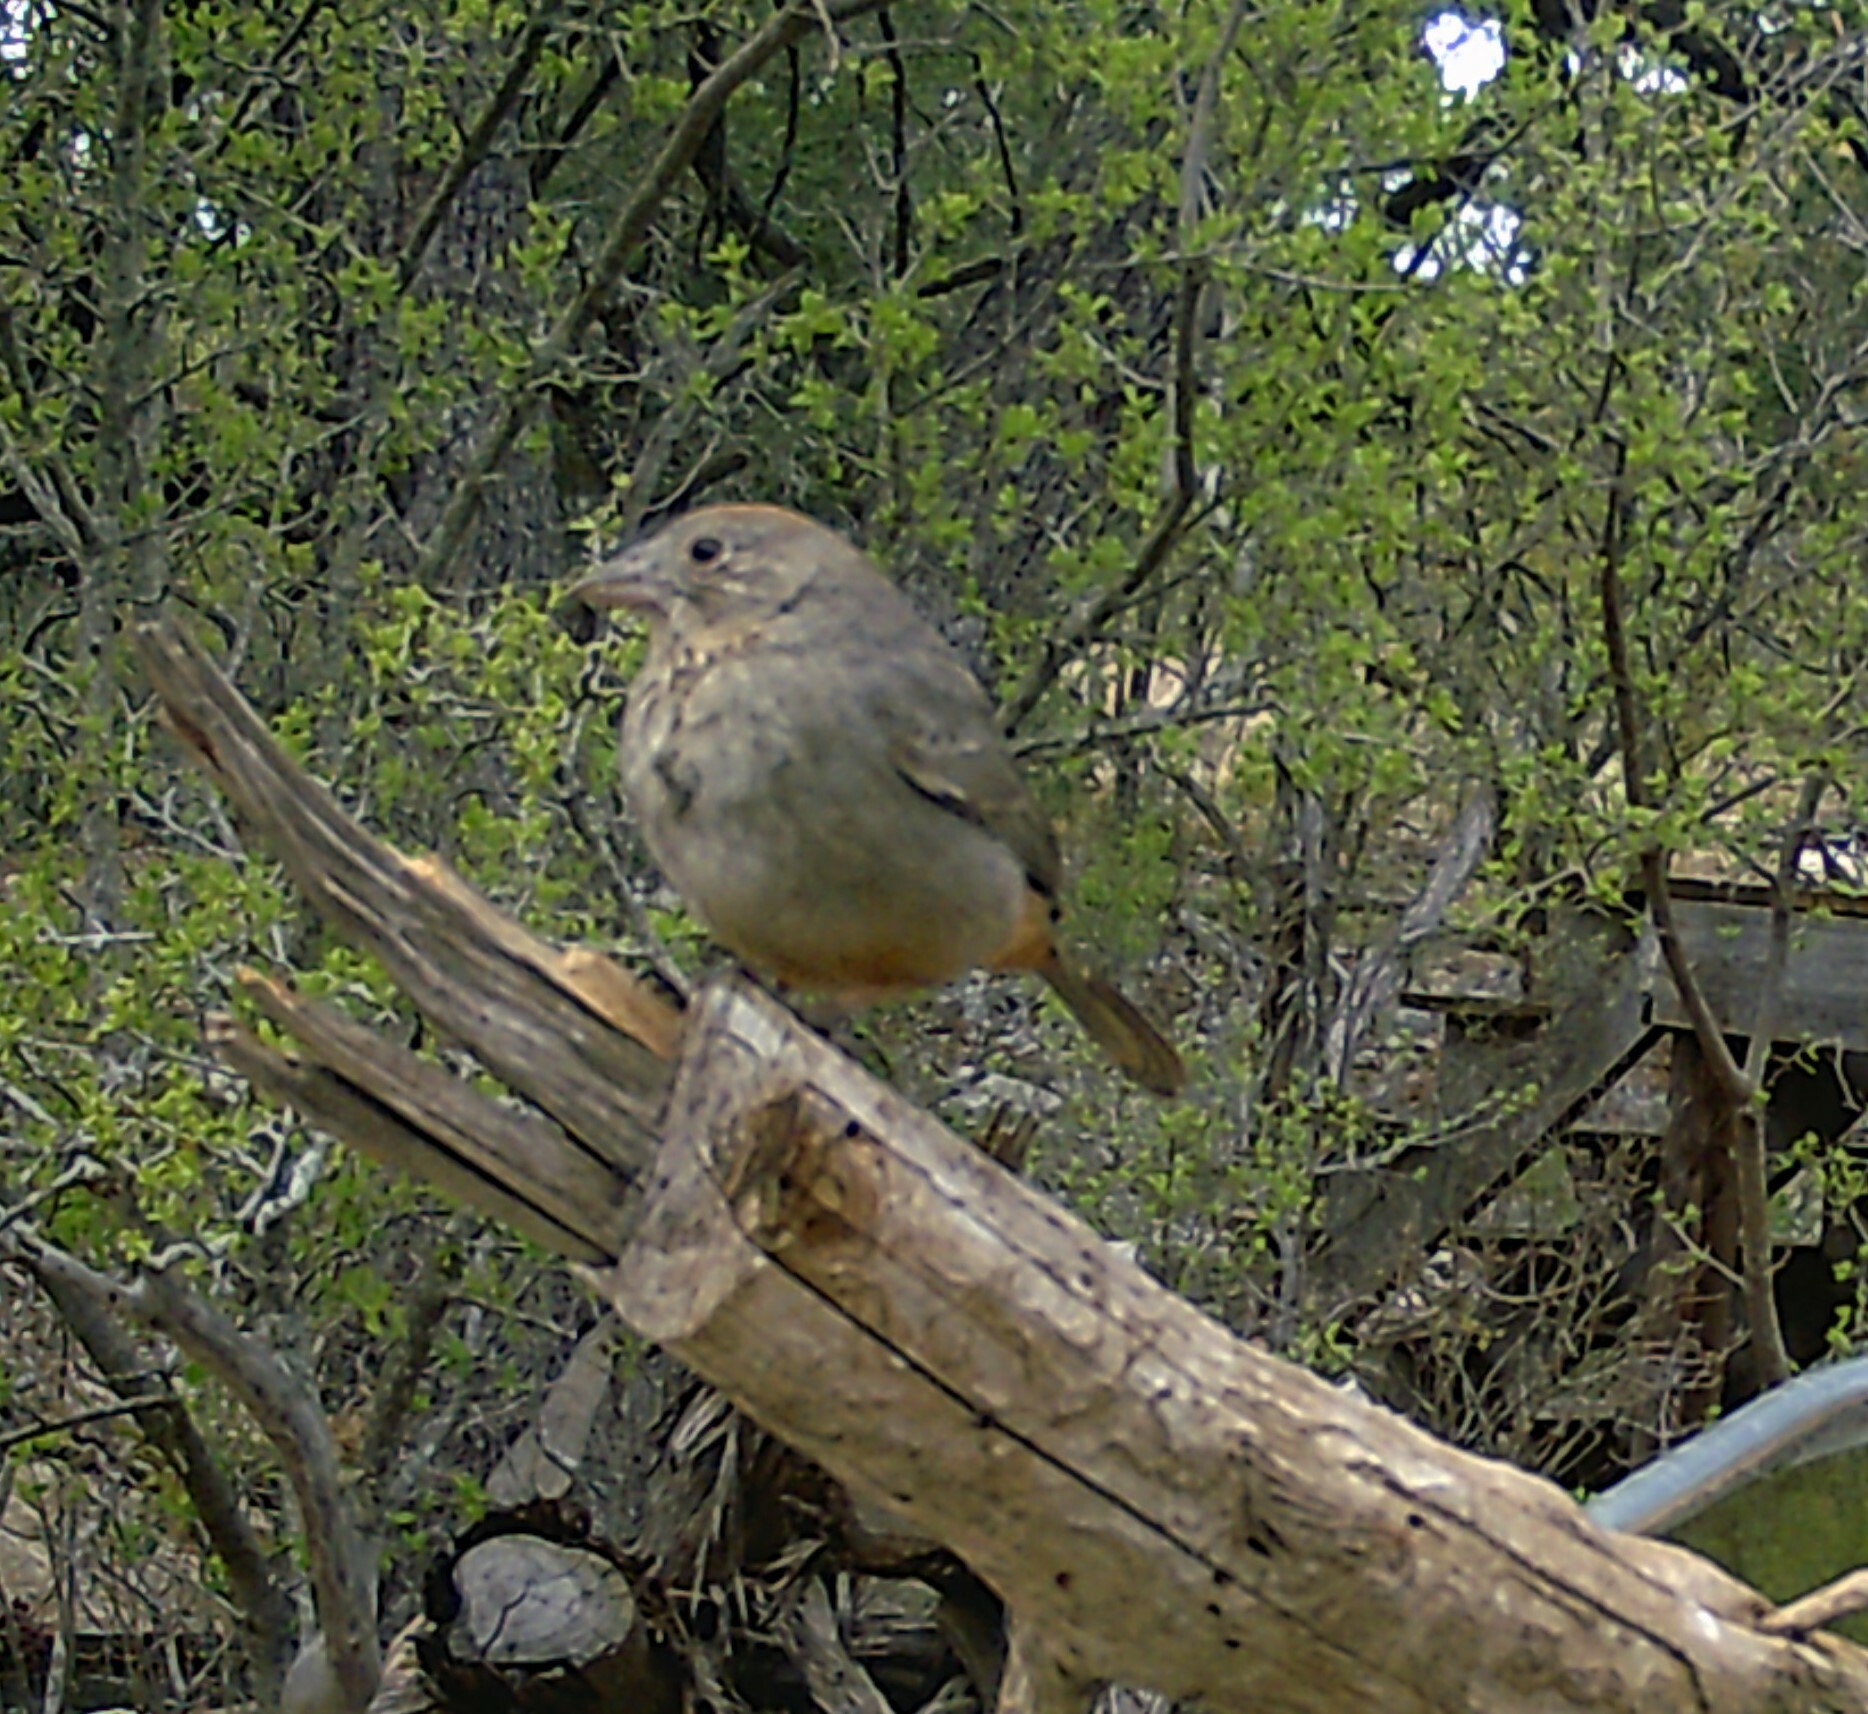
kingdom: Animalia
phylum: Chordata
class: Aves
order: Passeriformes
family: Passerellidae
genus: Melozone
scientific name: Melozone fusca
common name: Canyon towhee
